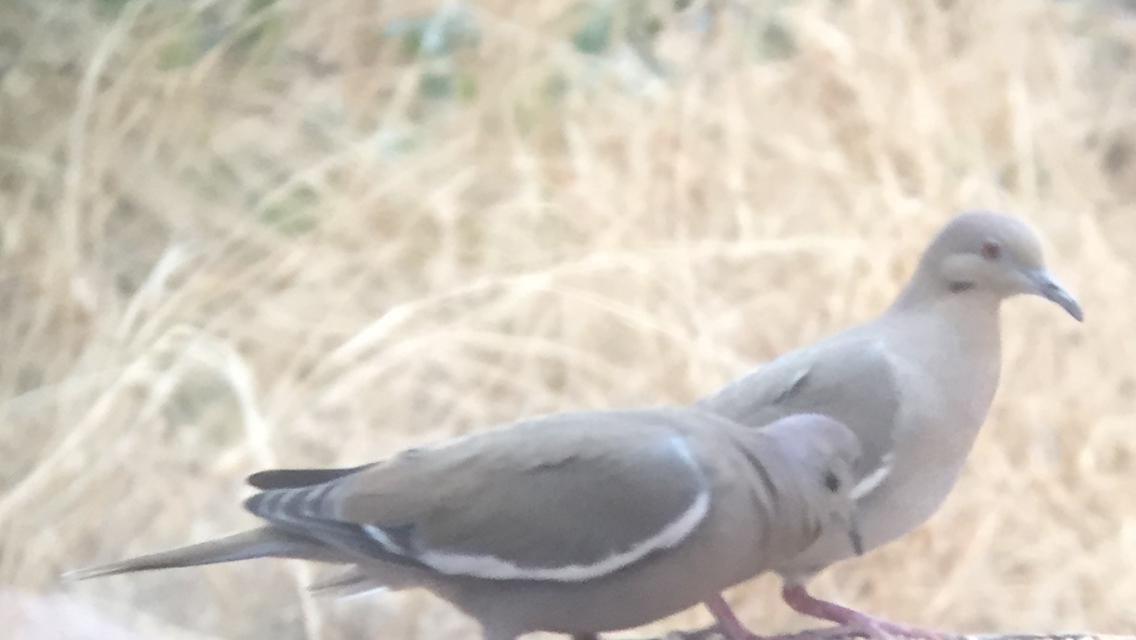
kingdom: Animalia
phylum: Chordata
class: Aves
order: Columbiformes
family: Columbidae
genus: Zenaida
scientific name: Zenaida asiatica
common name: White-winged dove
